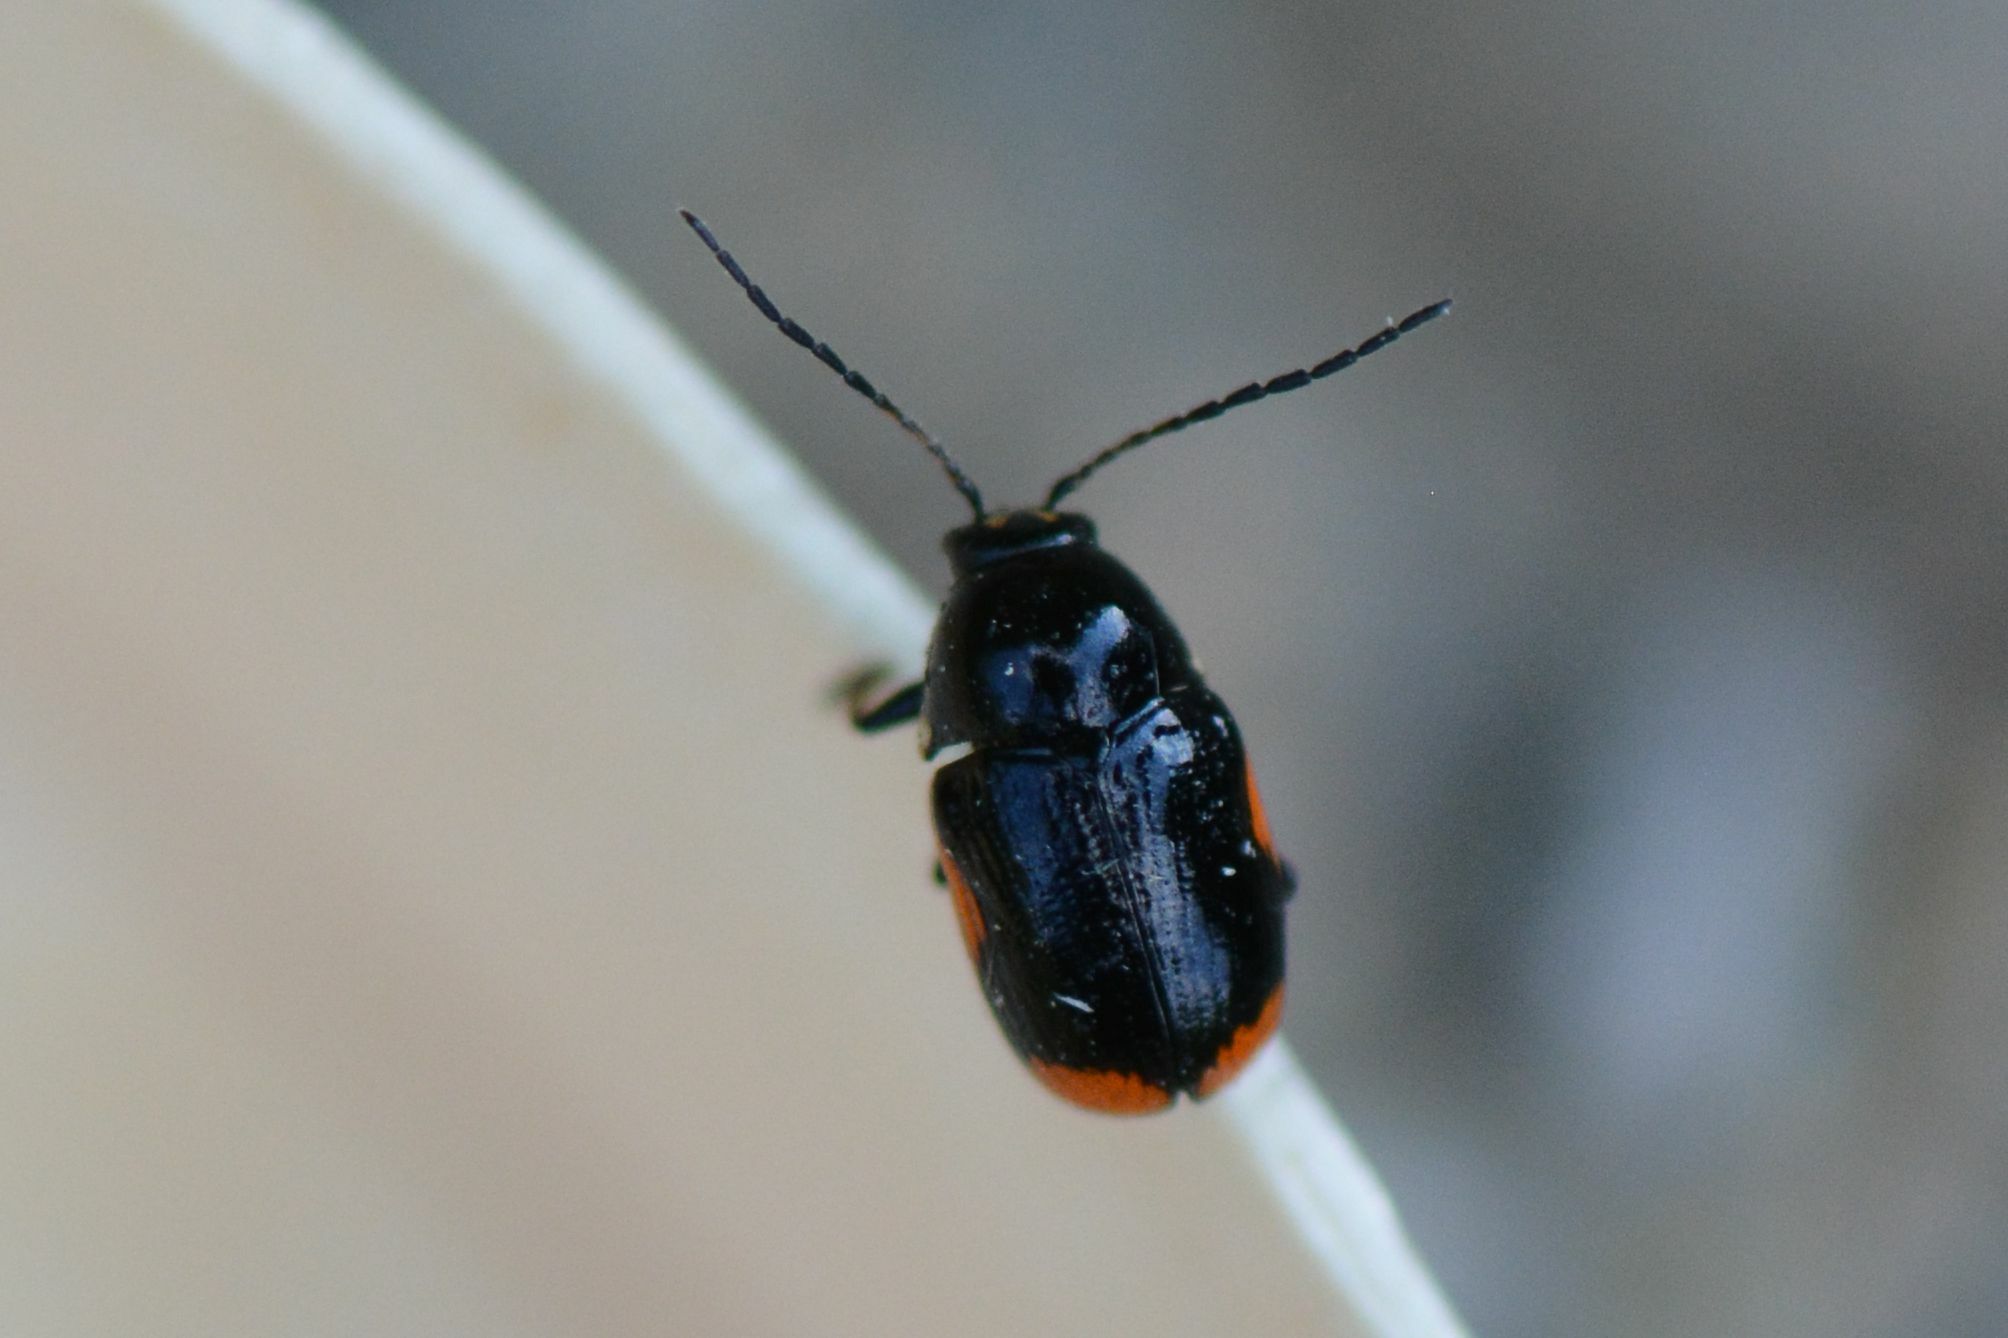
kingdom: Animalia
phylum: Arthropoda
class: Insecta
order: Coleoptera
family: Chrysomelidae
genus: Cryptocephalus
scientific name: Cryptocephalus moraei
